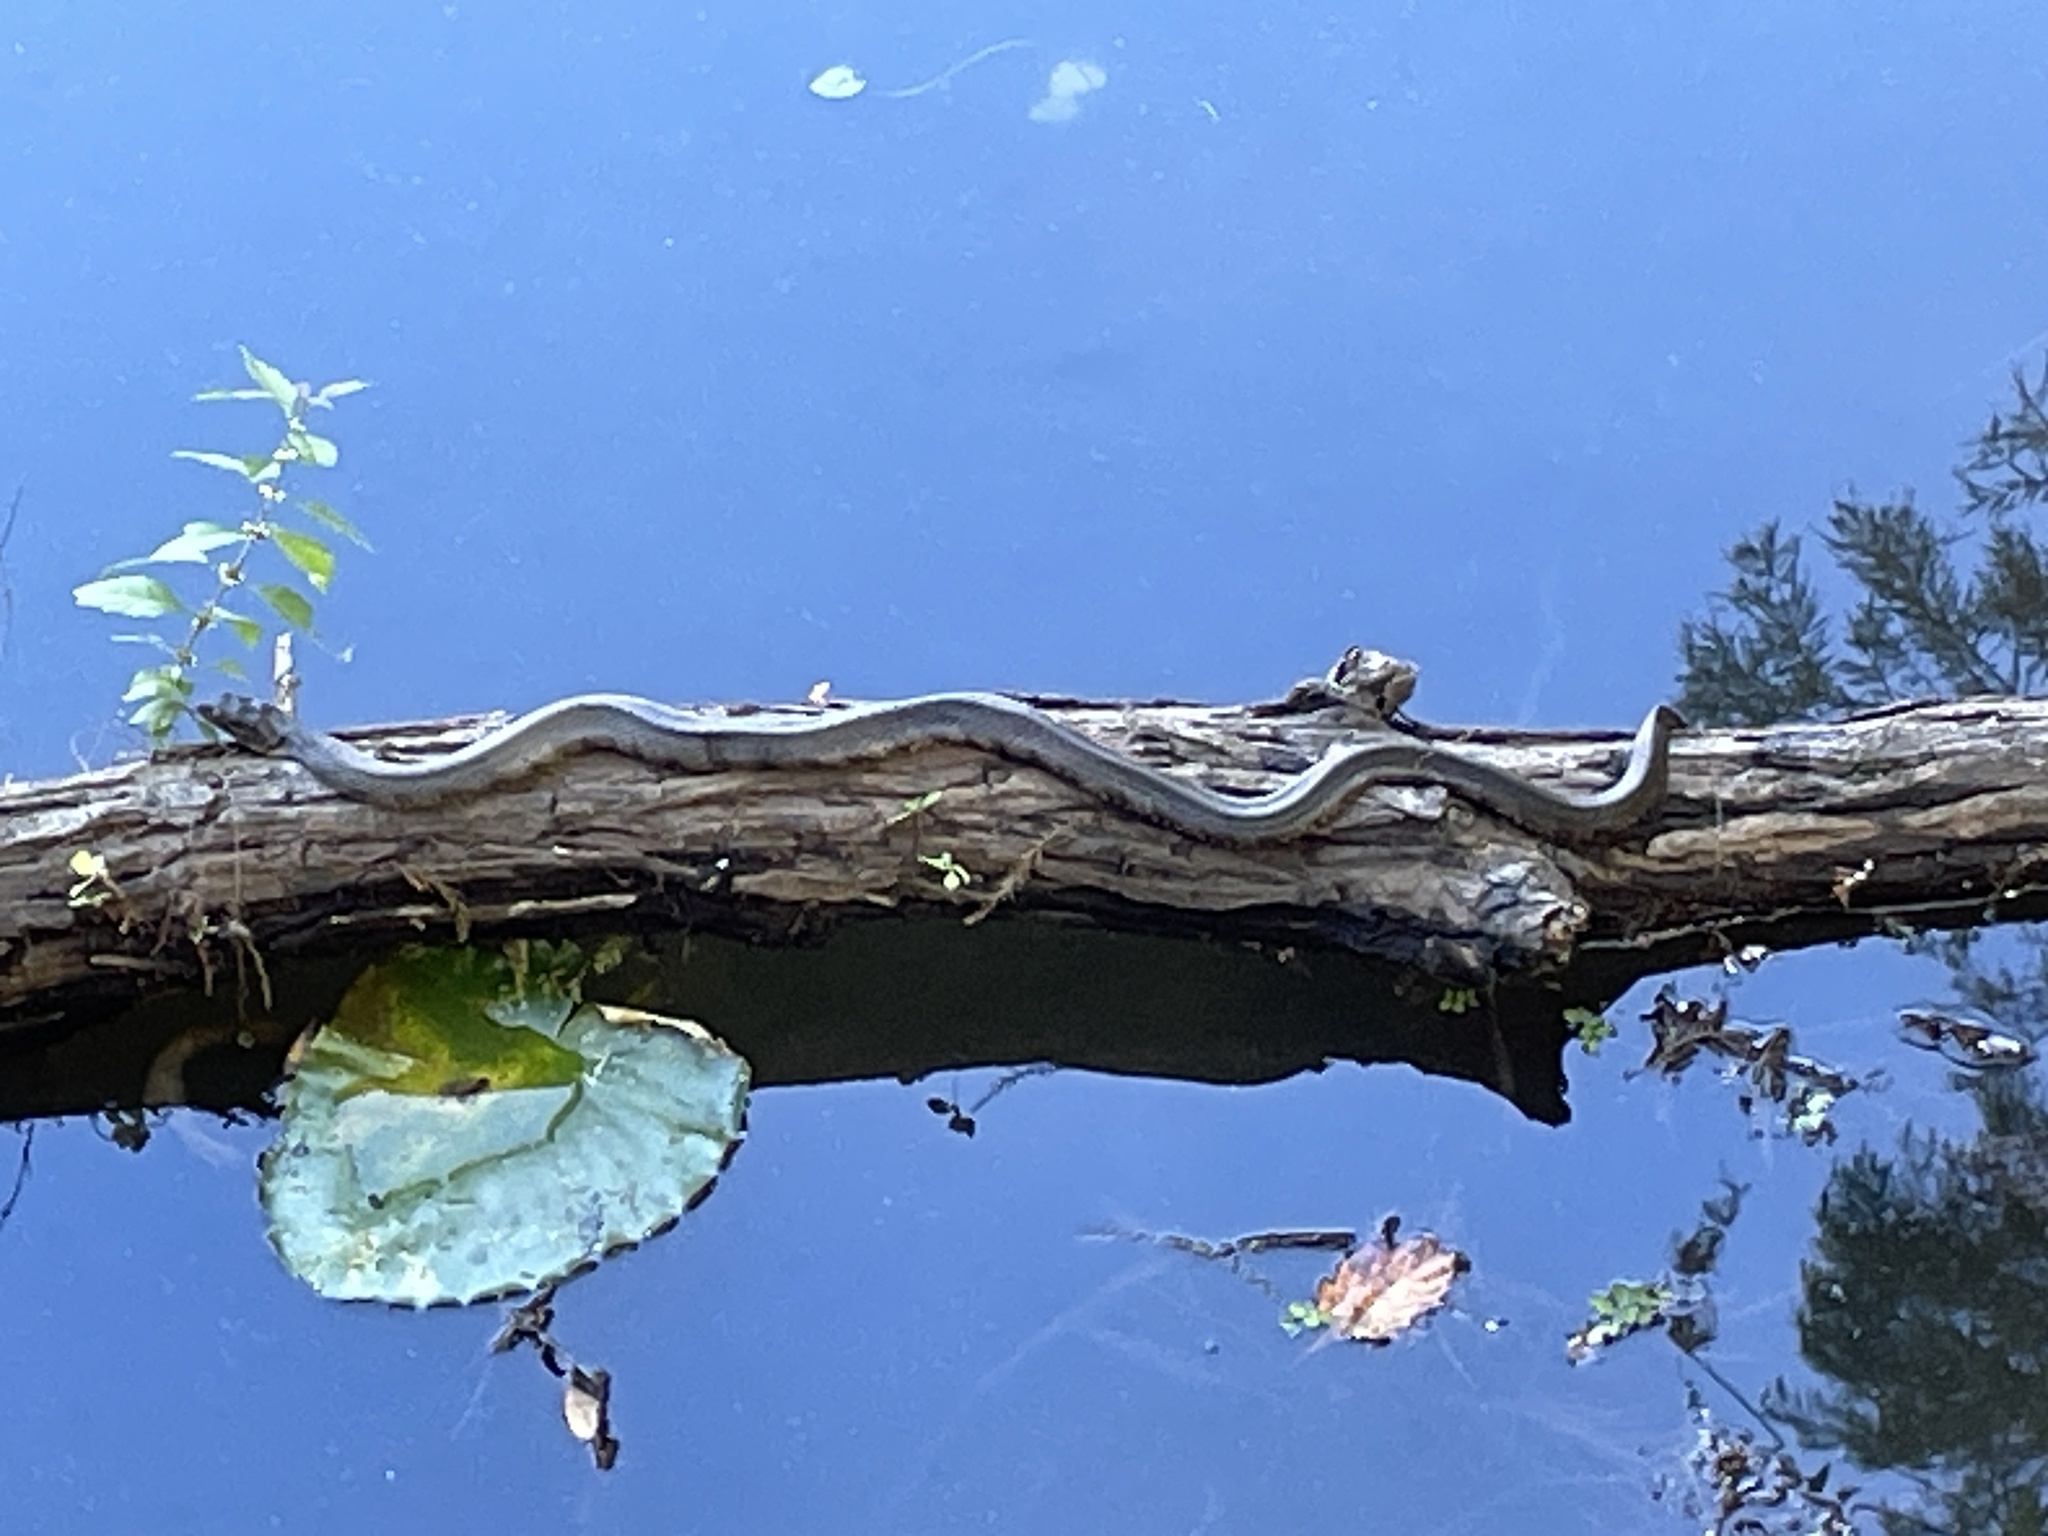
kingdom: Animalia
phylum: Chordata
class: Squamata
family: Colubridae
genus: Nerodia
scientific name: Nerodia fasciata
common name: Southern water snake
